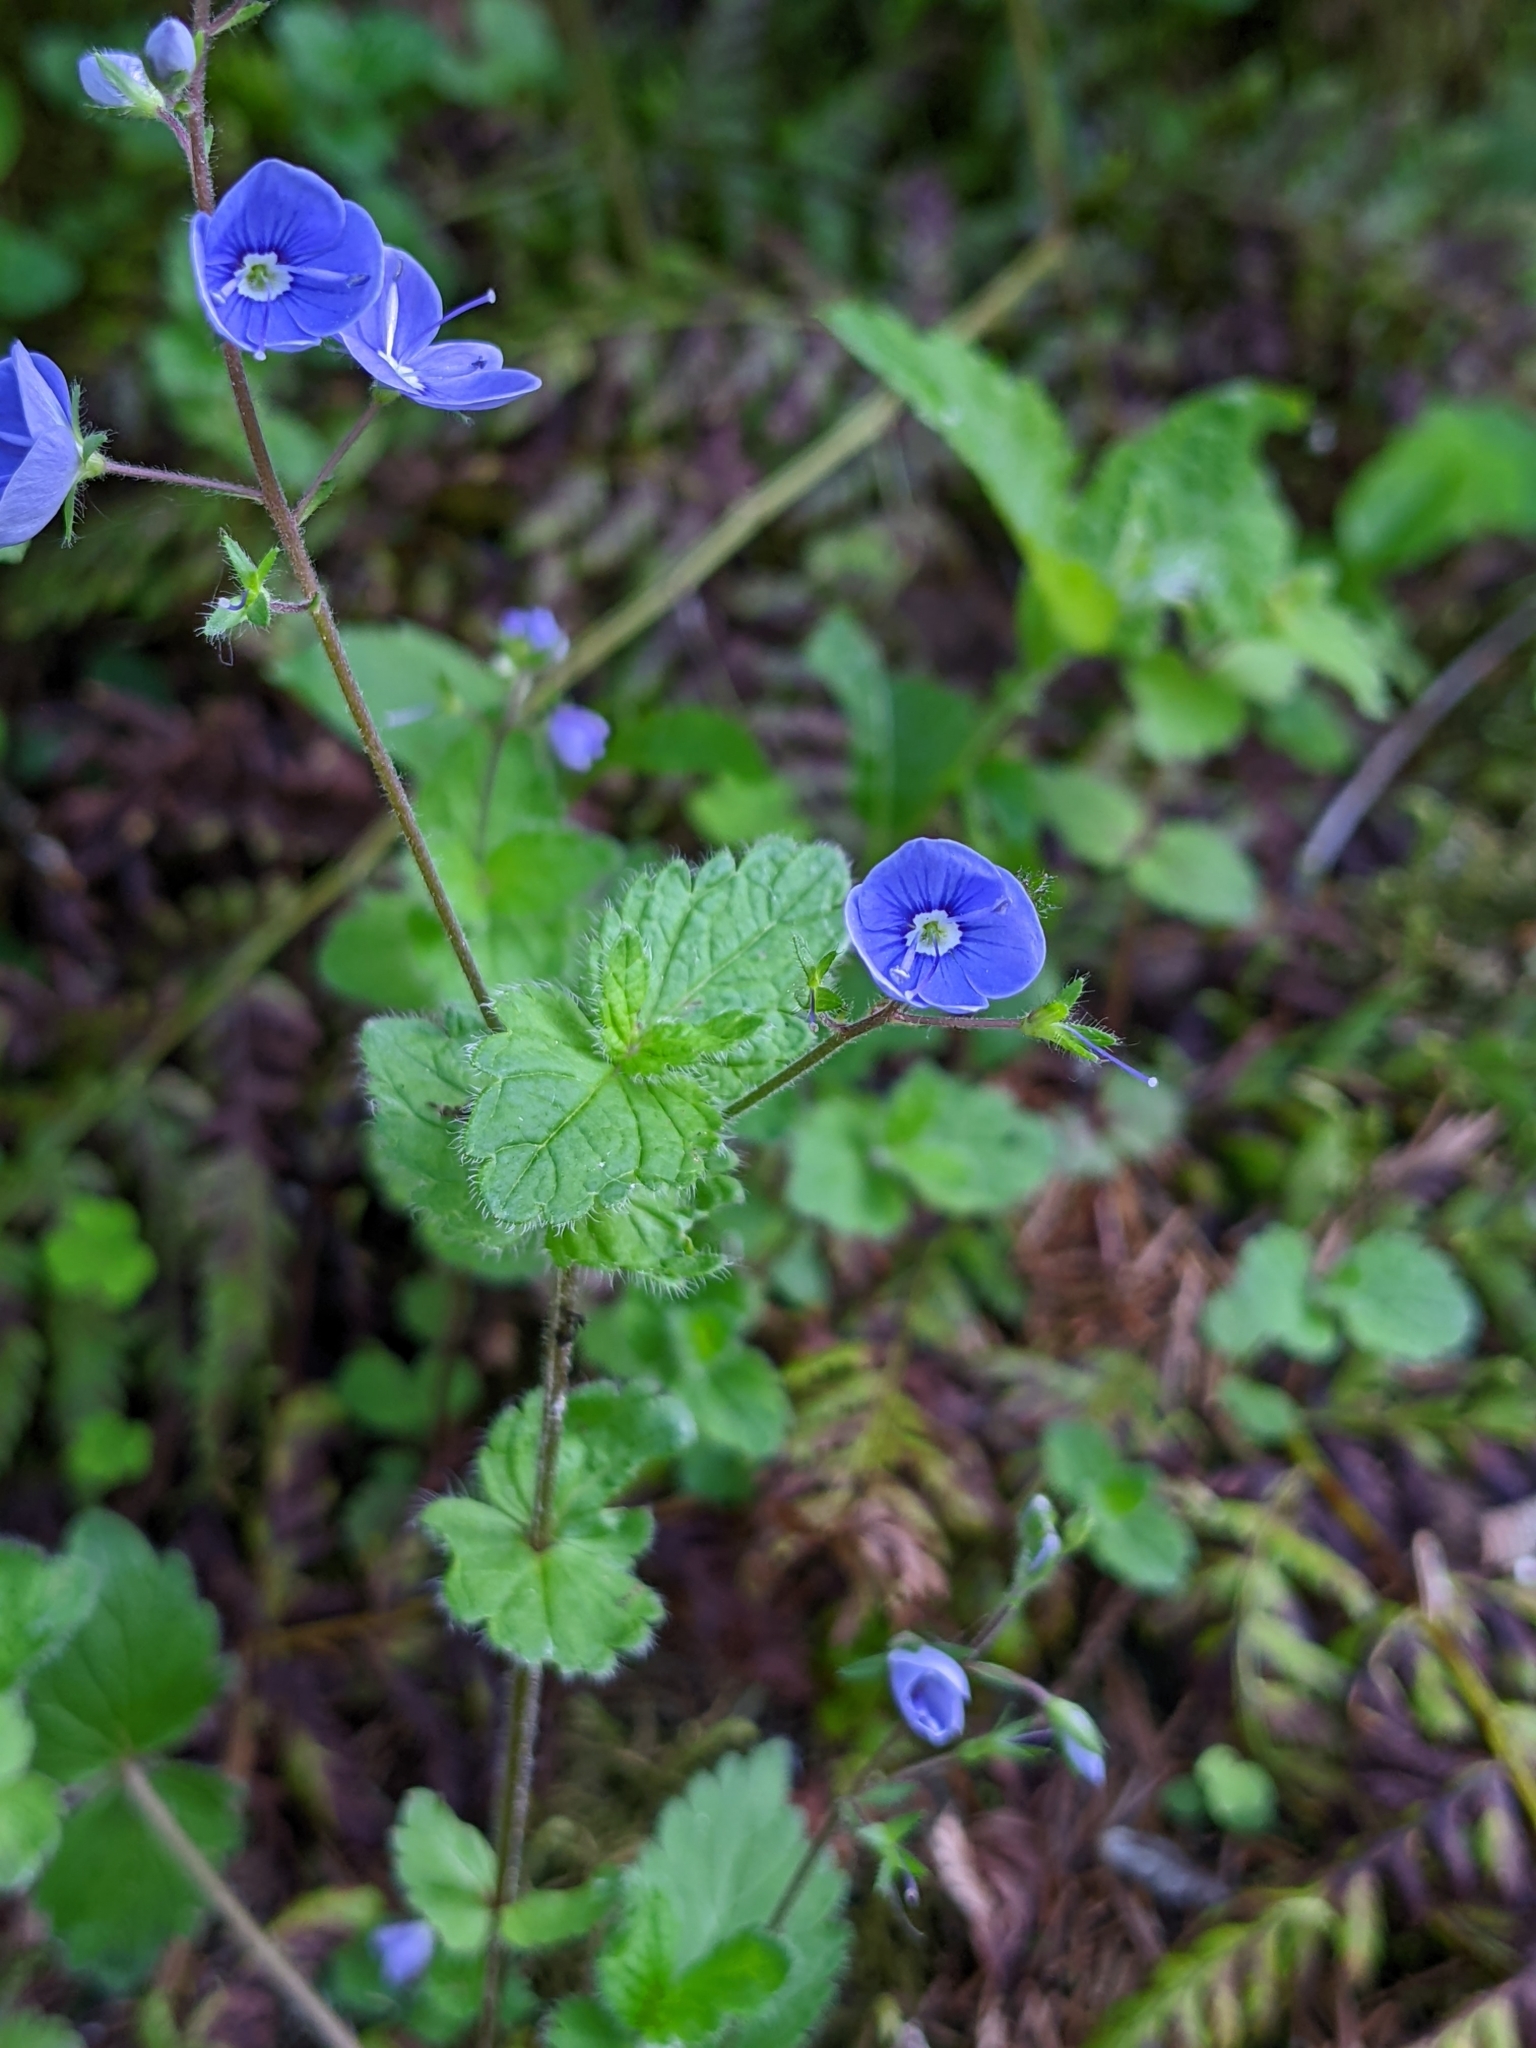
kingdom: Plantae
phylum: Tracheophyta
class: Magnoliopsida
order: Lamiales
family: Plantaginaceae
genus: Veronica
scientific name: Veronica chamaedrys
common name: Germander speedwell
